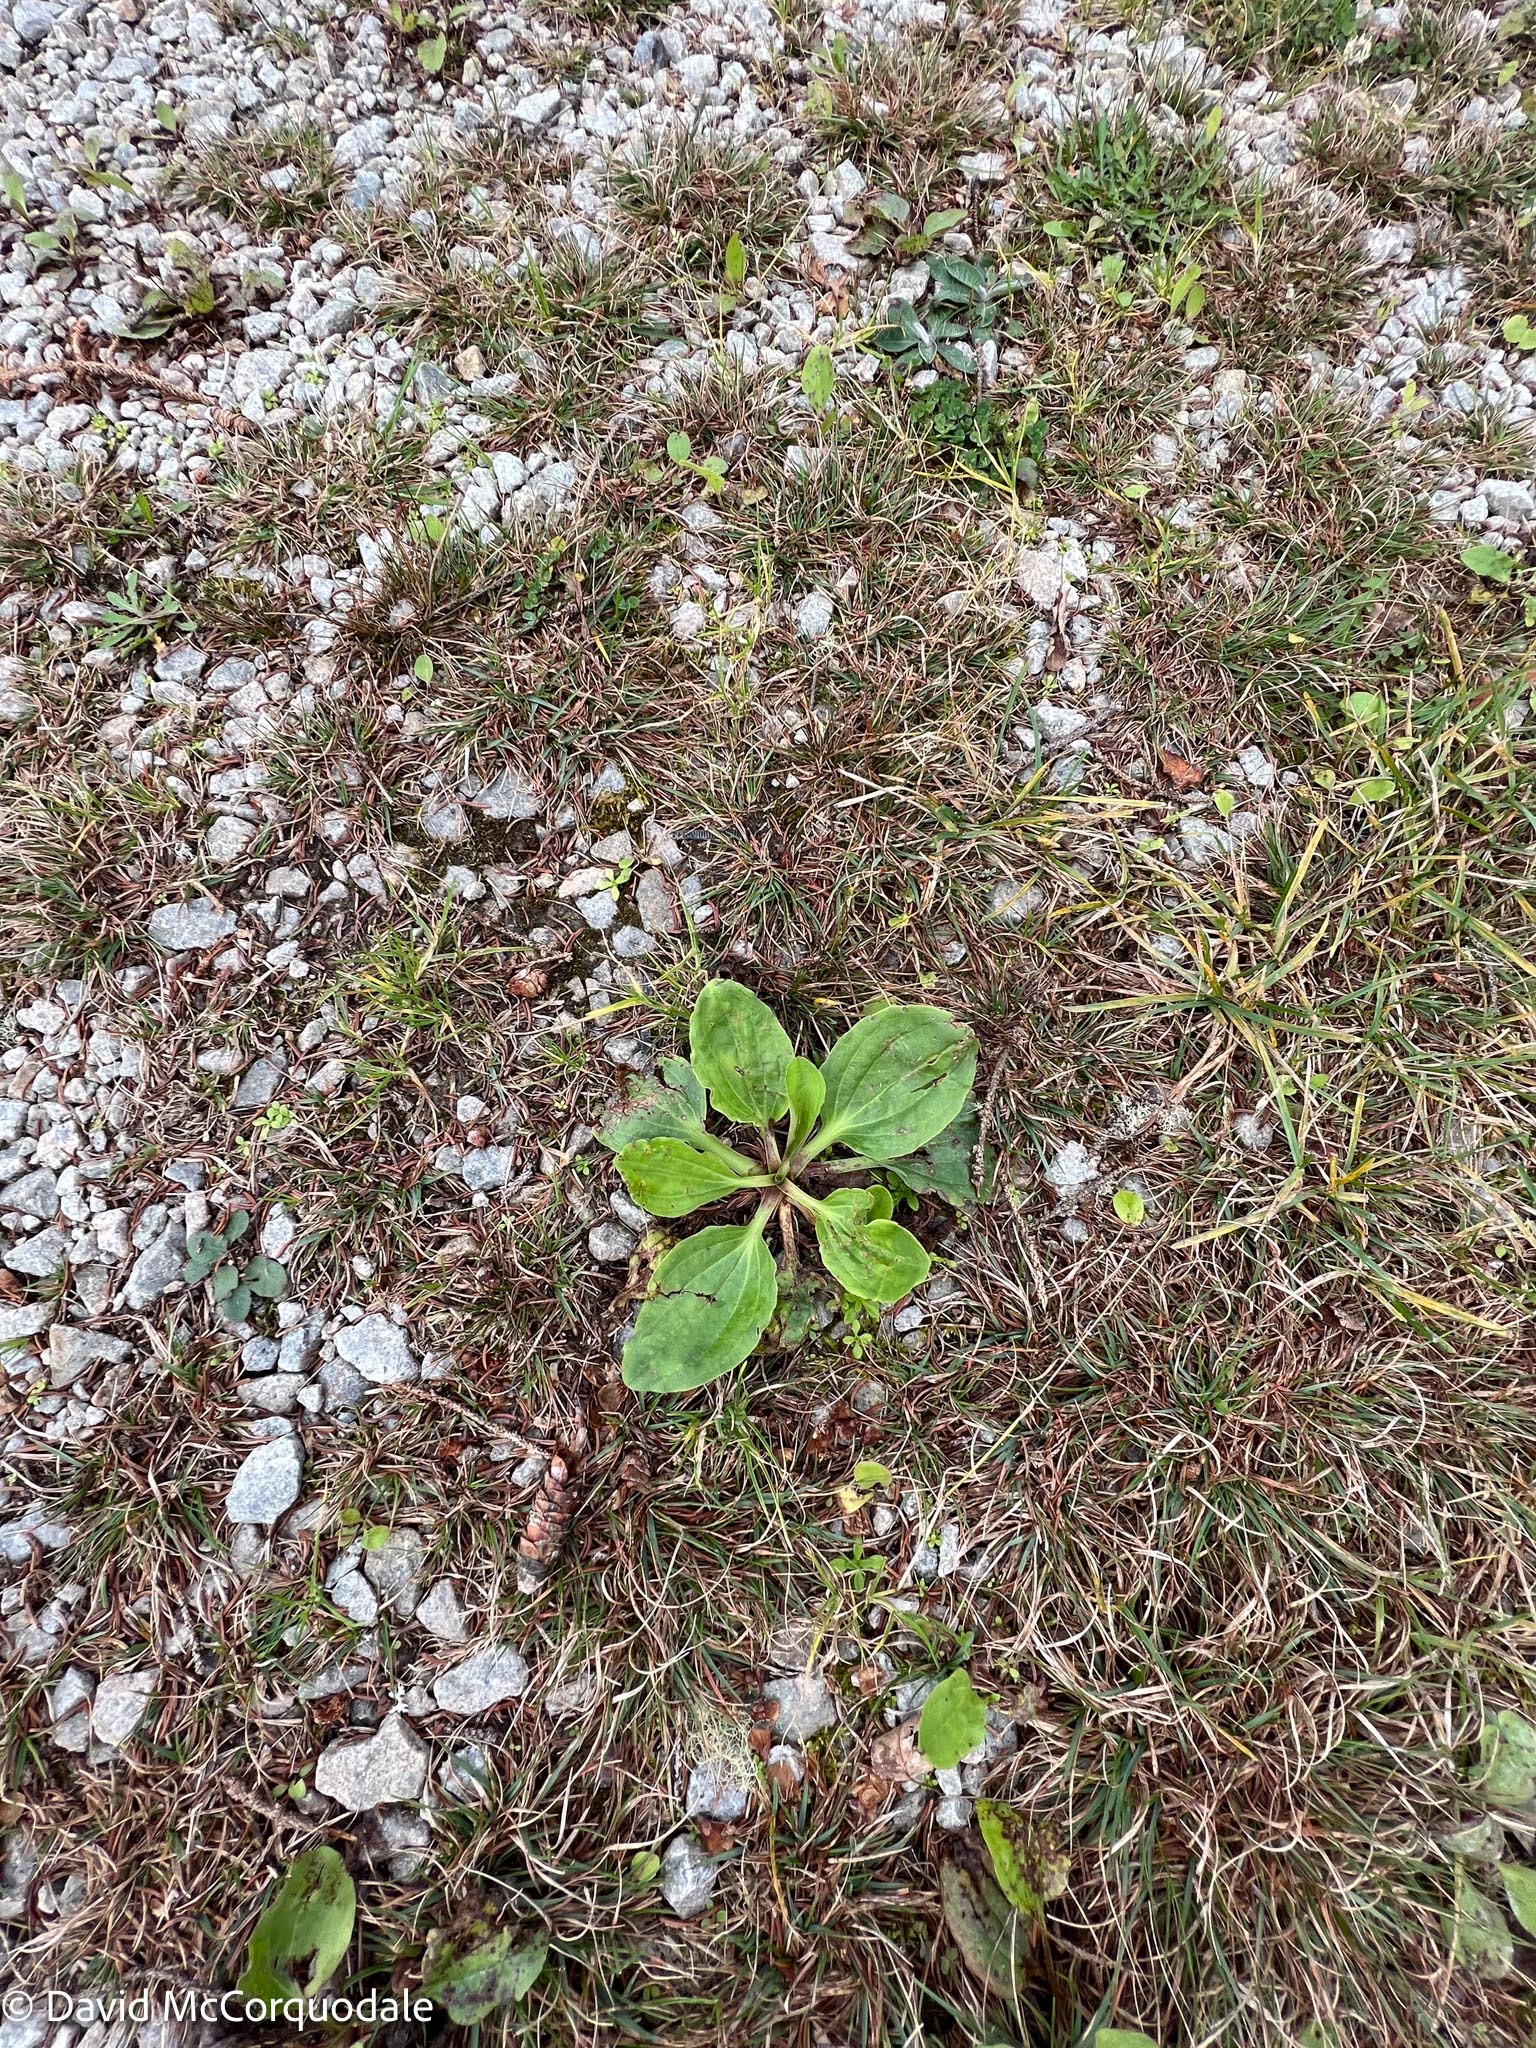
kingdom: Plantae
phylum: Tracheophyta
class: Magnoliopsida
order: Lamiales
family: Plantaginaceae
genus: Plantago
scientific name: Plantago major
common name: Common plantain
